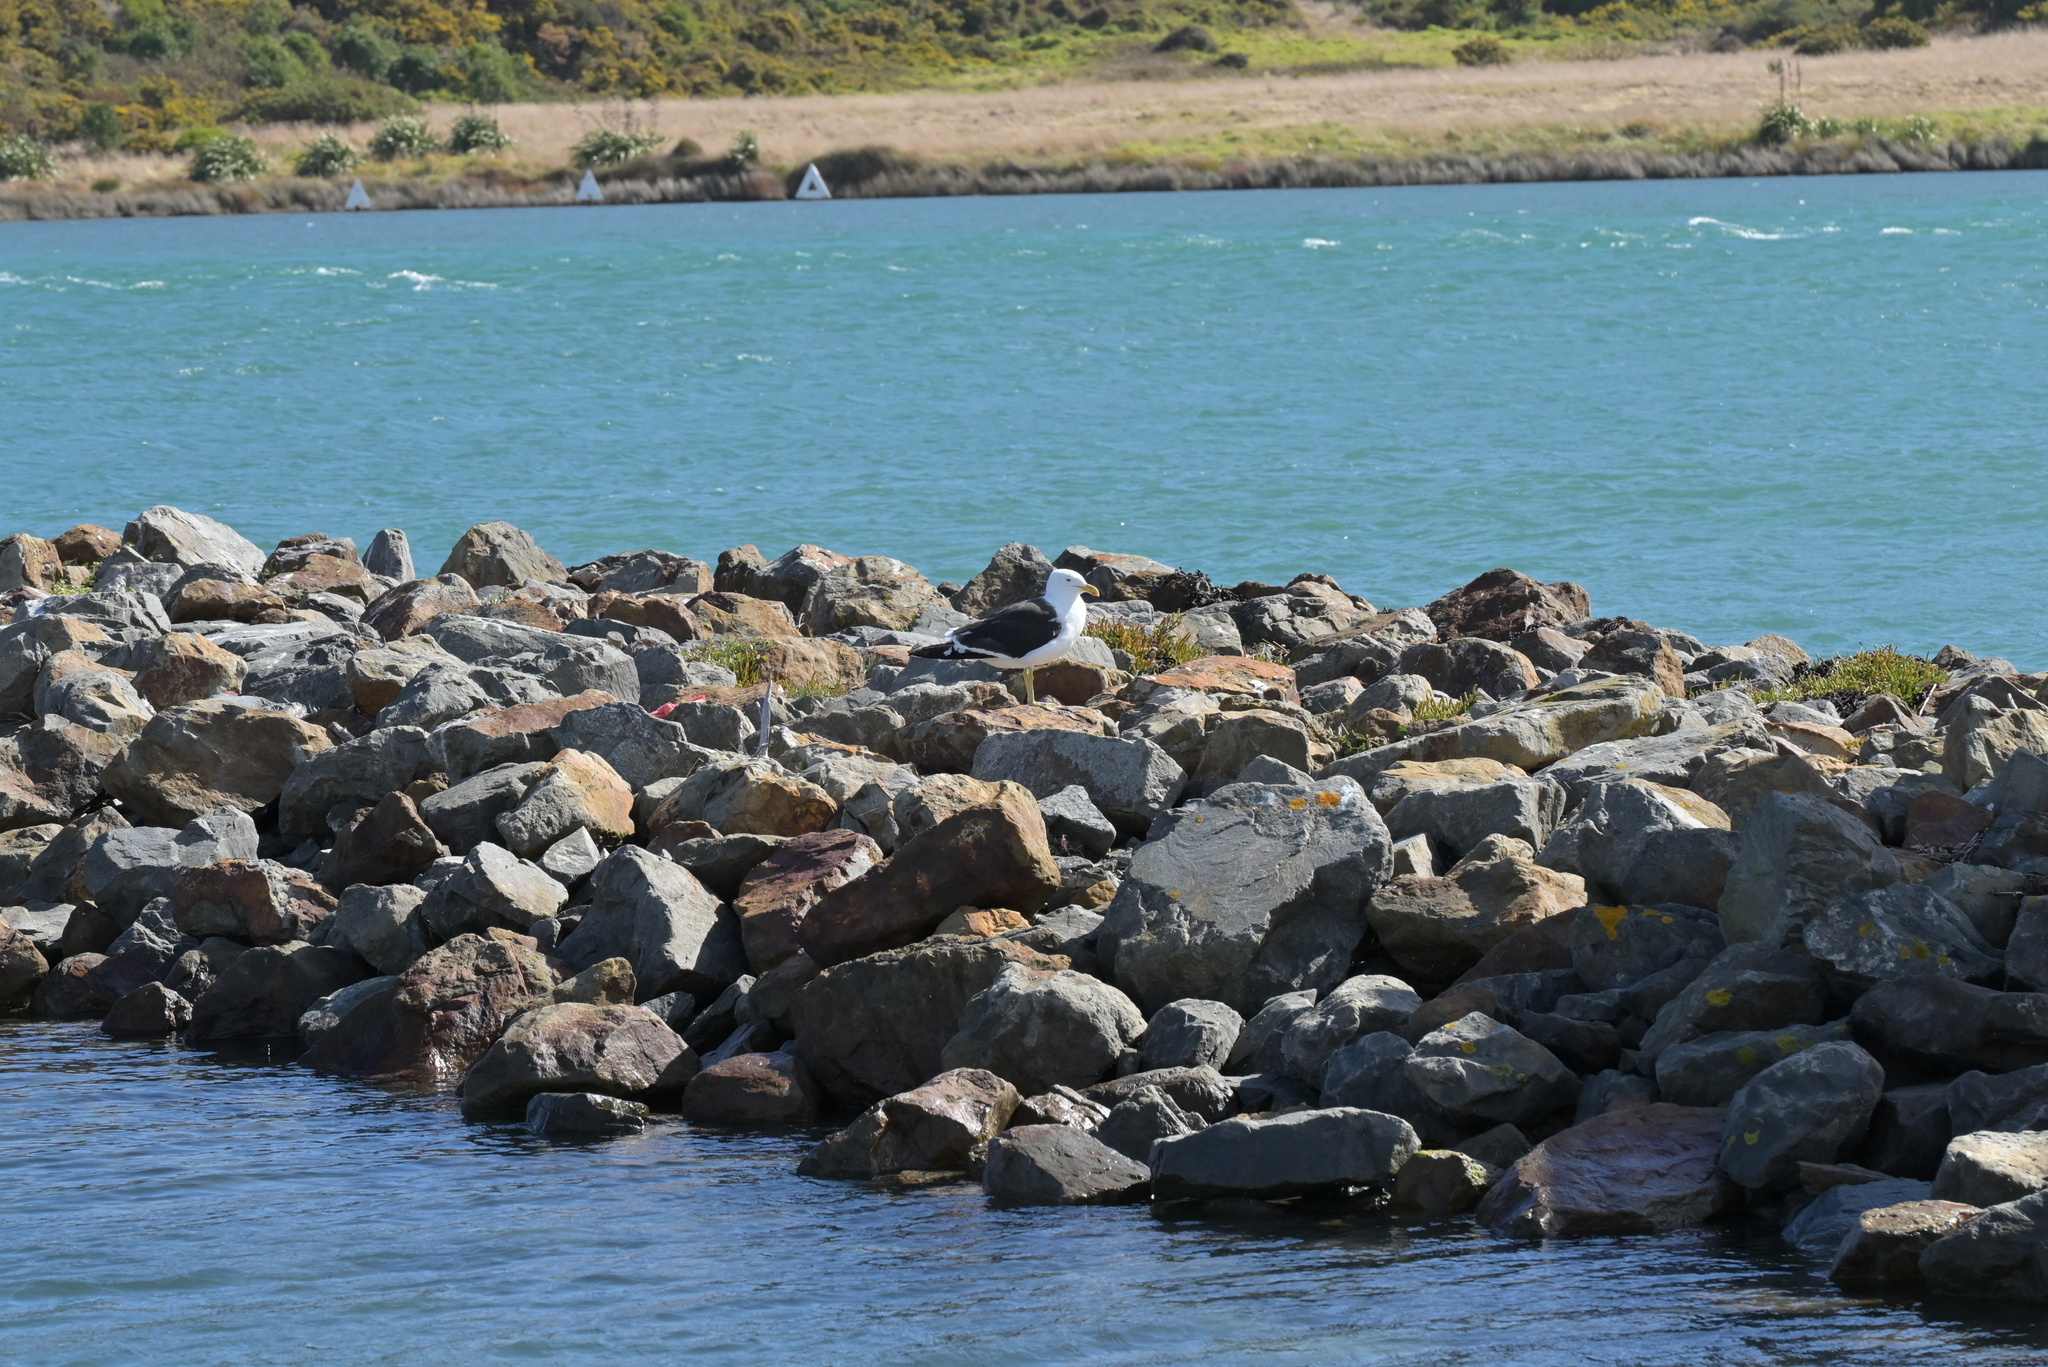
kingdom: Animalia
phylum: Chordata
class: Aves
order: Charadriiformes
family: Laridae
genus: Larus
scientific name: Larus dominicanus
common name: Kelp gull
